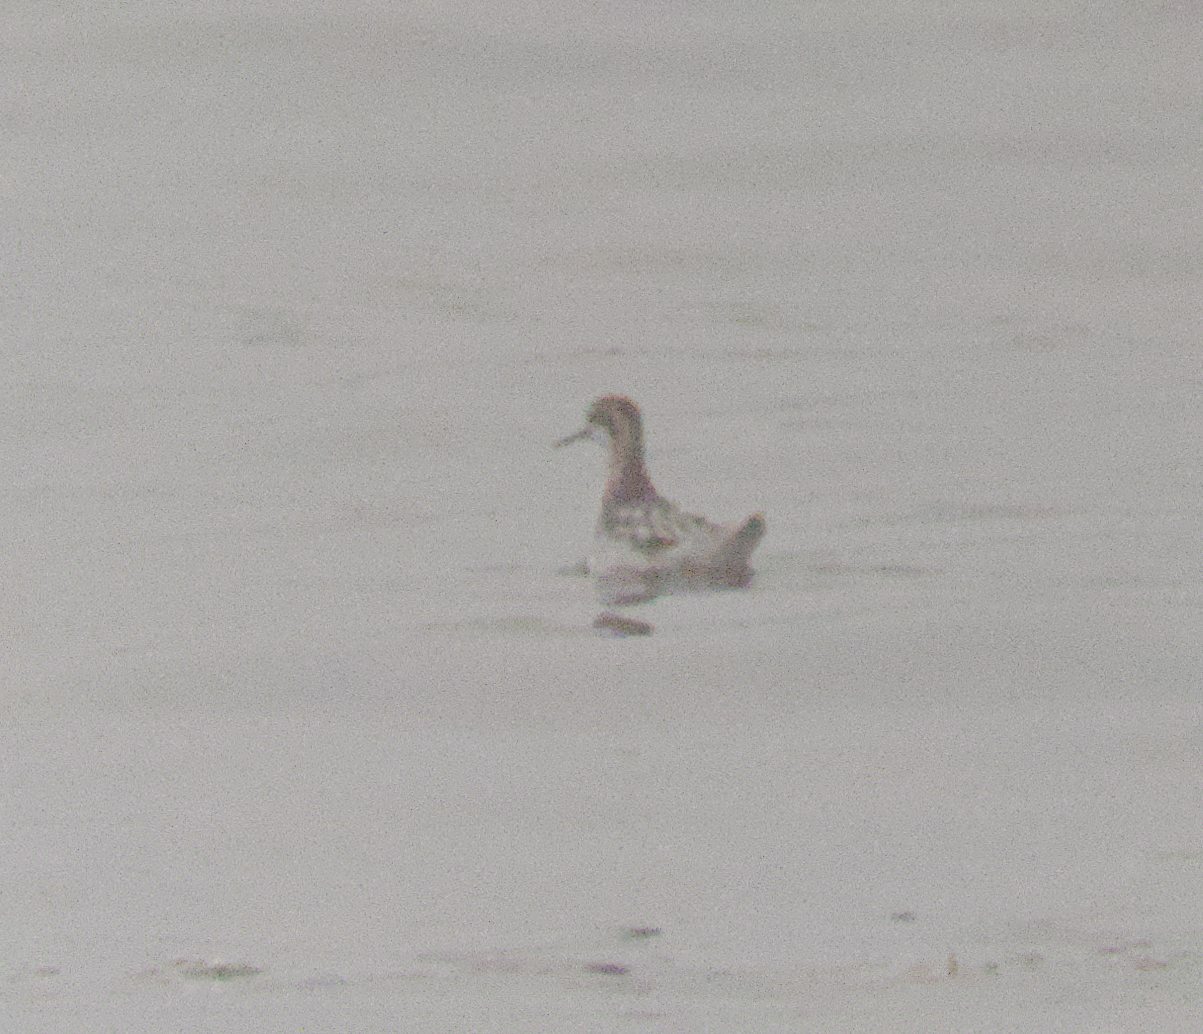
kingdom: Animalia
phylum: Chordata
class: Aves
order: Charadriiformes
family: Scolopacidae
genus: Phalaropus
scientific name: Phalaropus lobatus
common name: Red-necked phalarope
